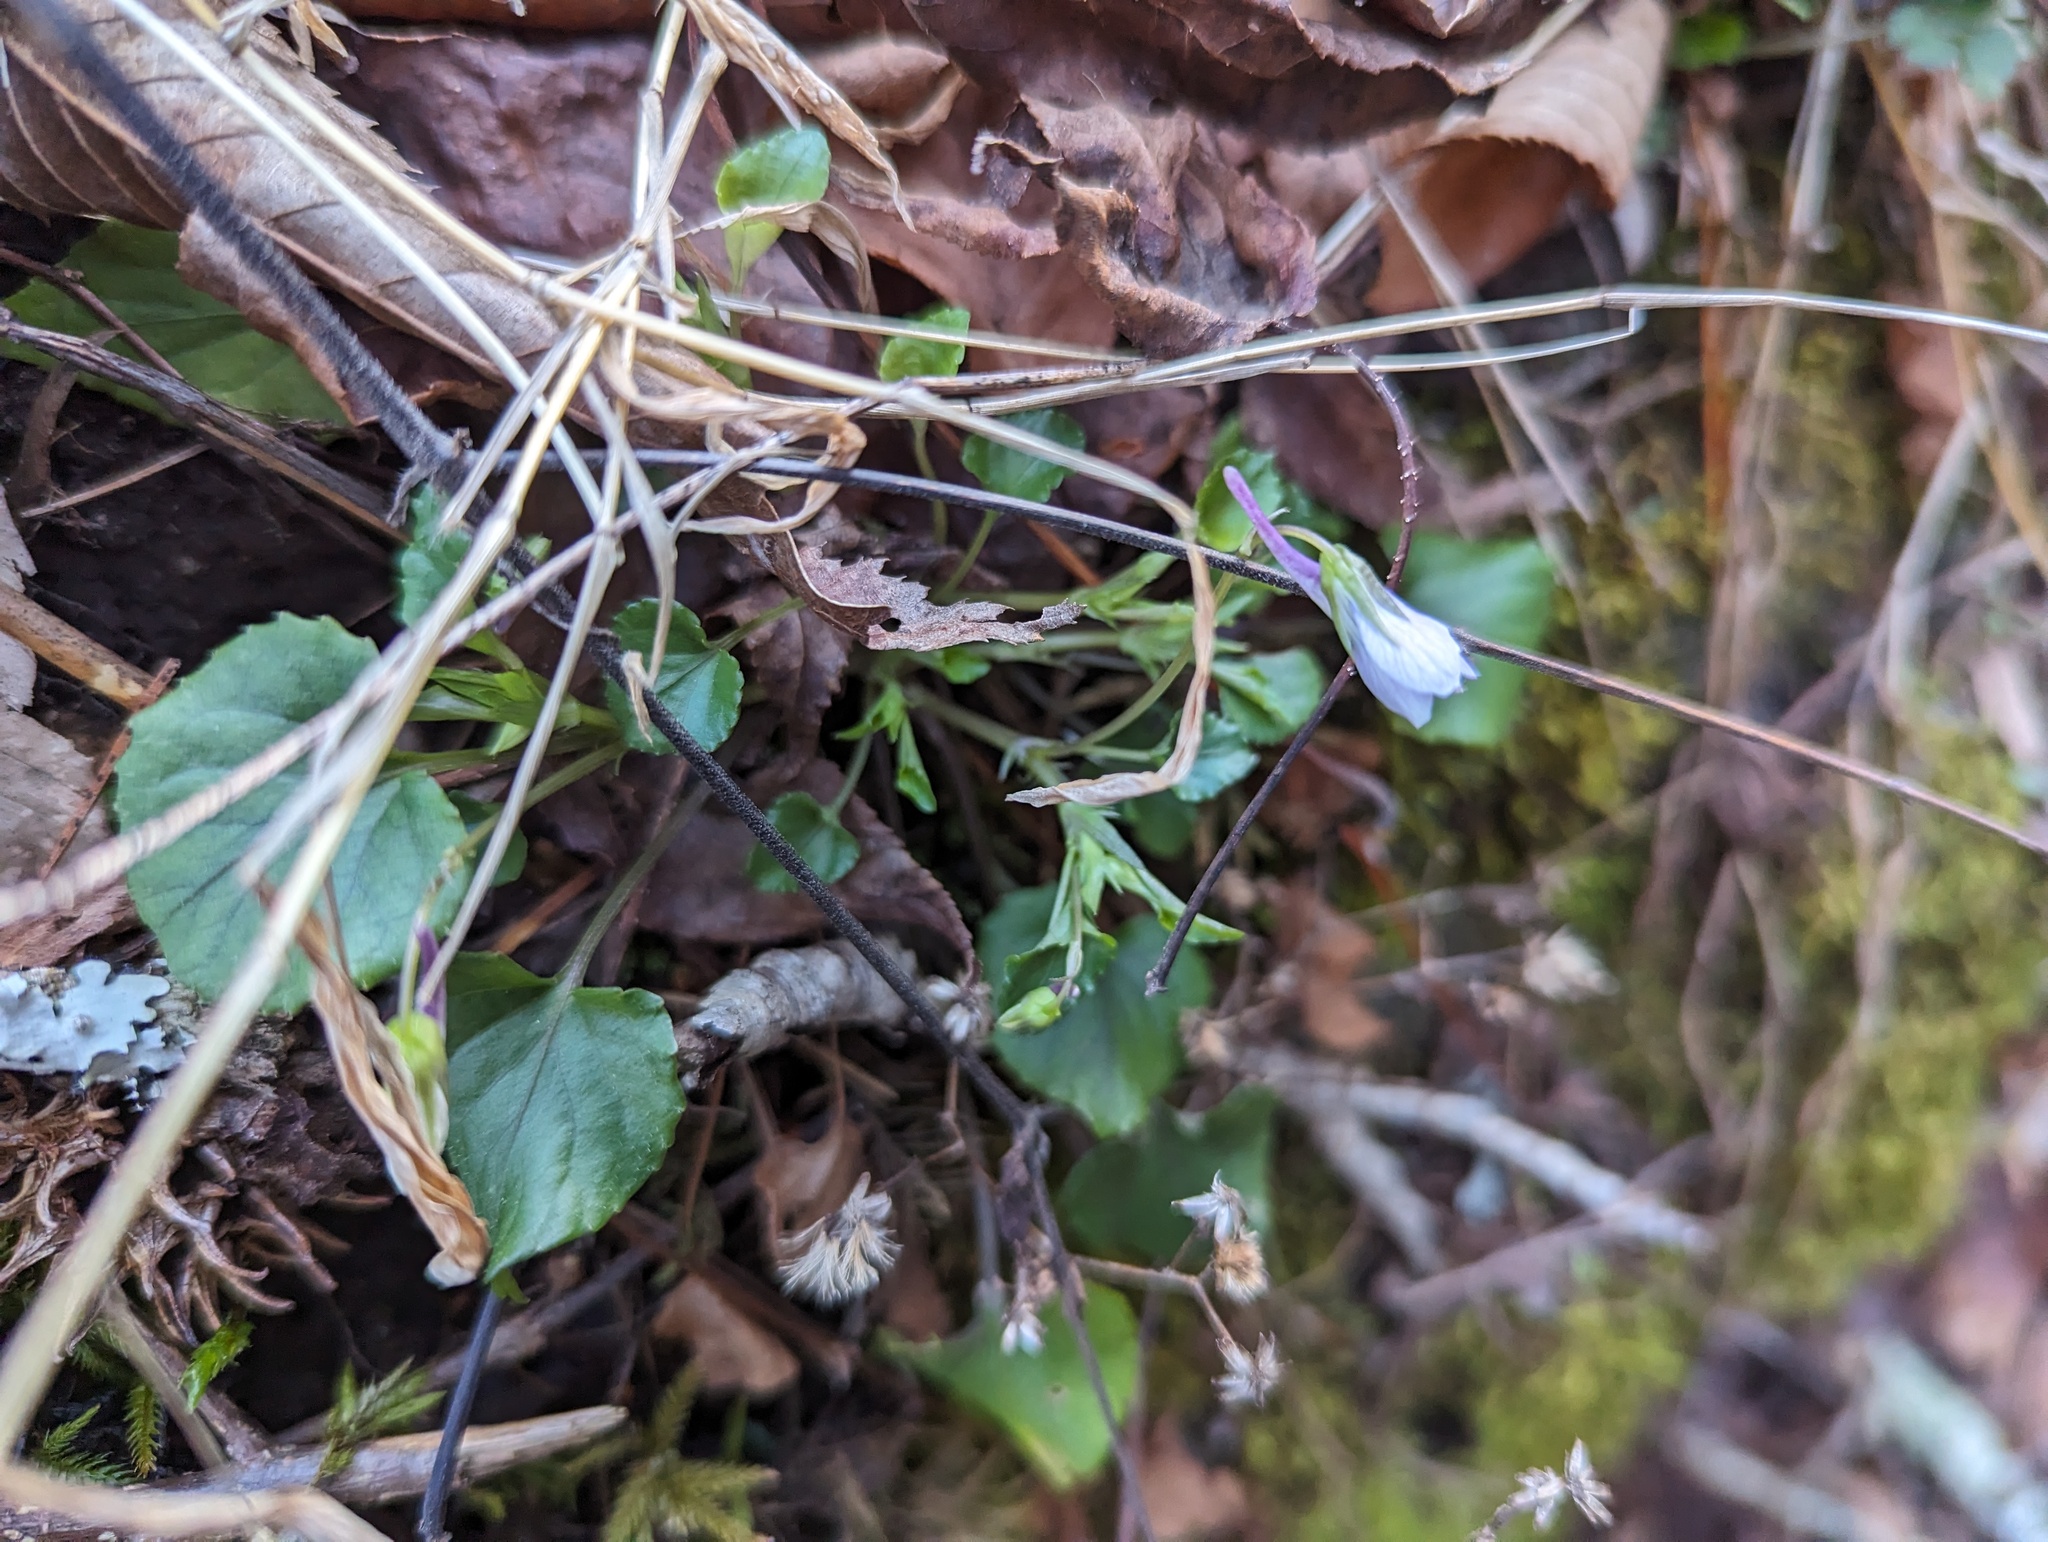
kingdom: Plantae
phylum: Tracheophyta
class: Magnoliopsida
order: Malpighiales
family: Violaceae
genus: Viola
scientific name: Viola rostrata
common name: Long-spur violet
